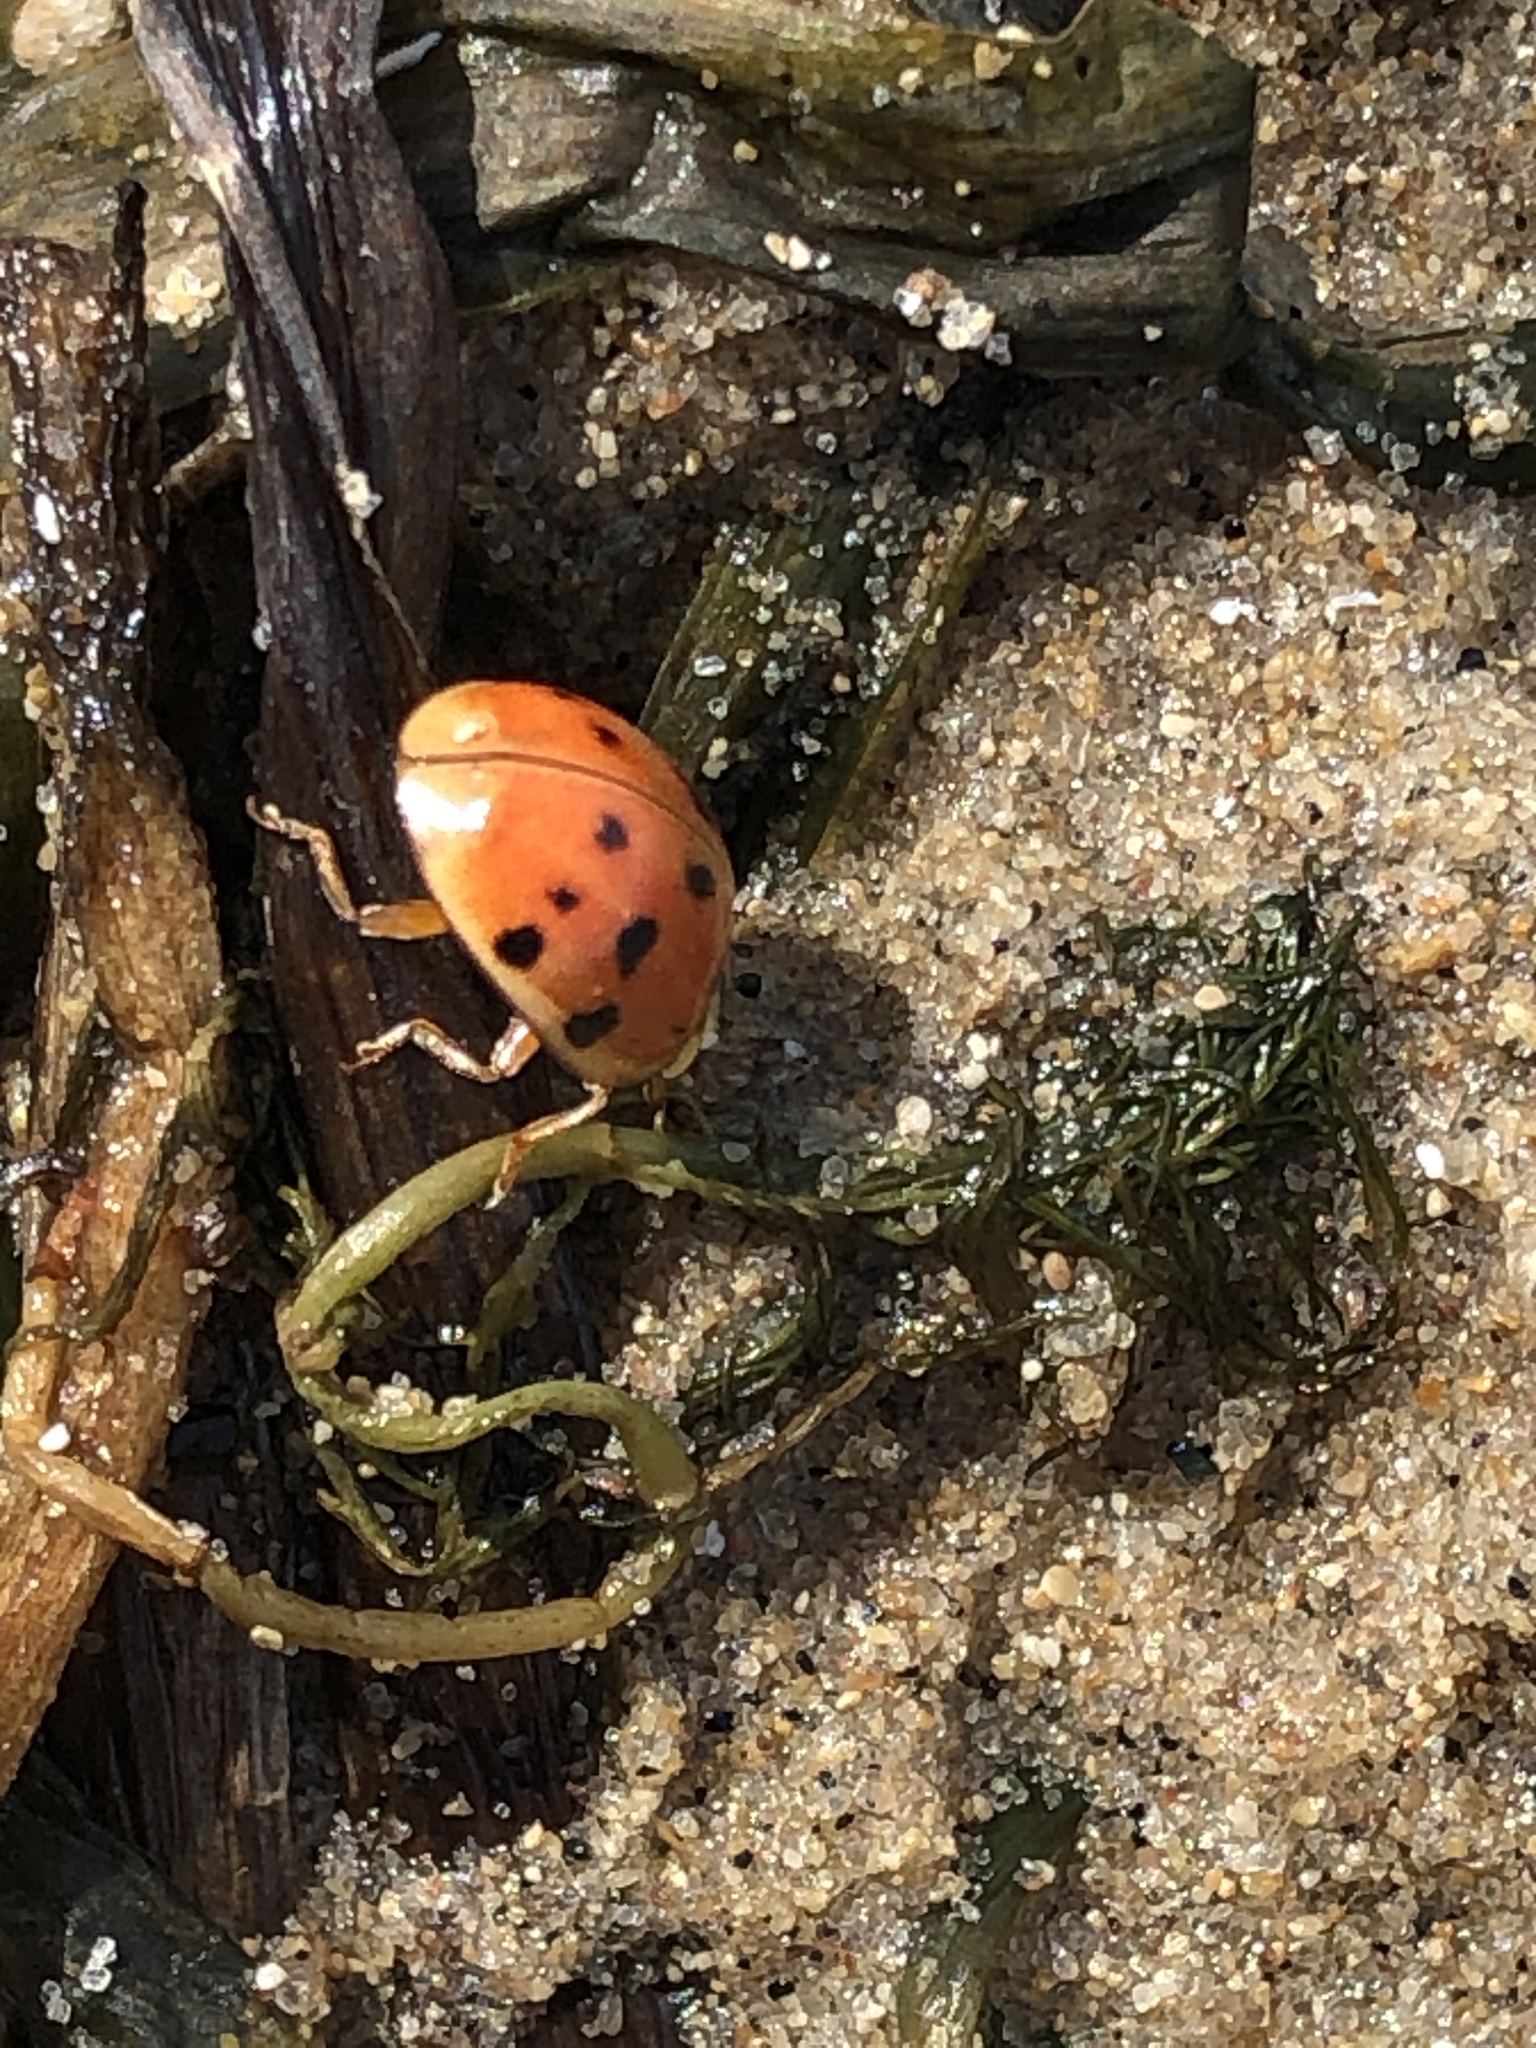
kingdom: Animalia
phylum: Arthropoda
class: Insecta
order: Coleoptera
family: Coccinellidae
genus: Harmonia
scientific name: Harmonia axyridis
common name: Harlequin ladybird
